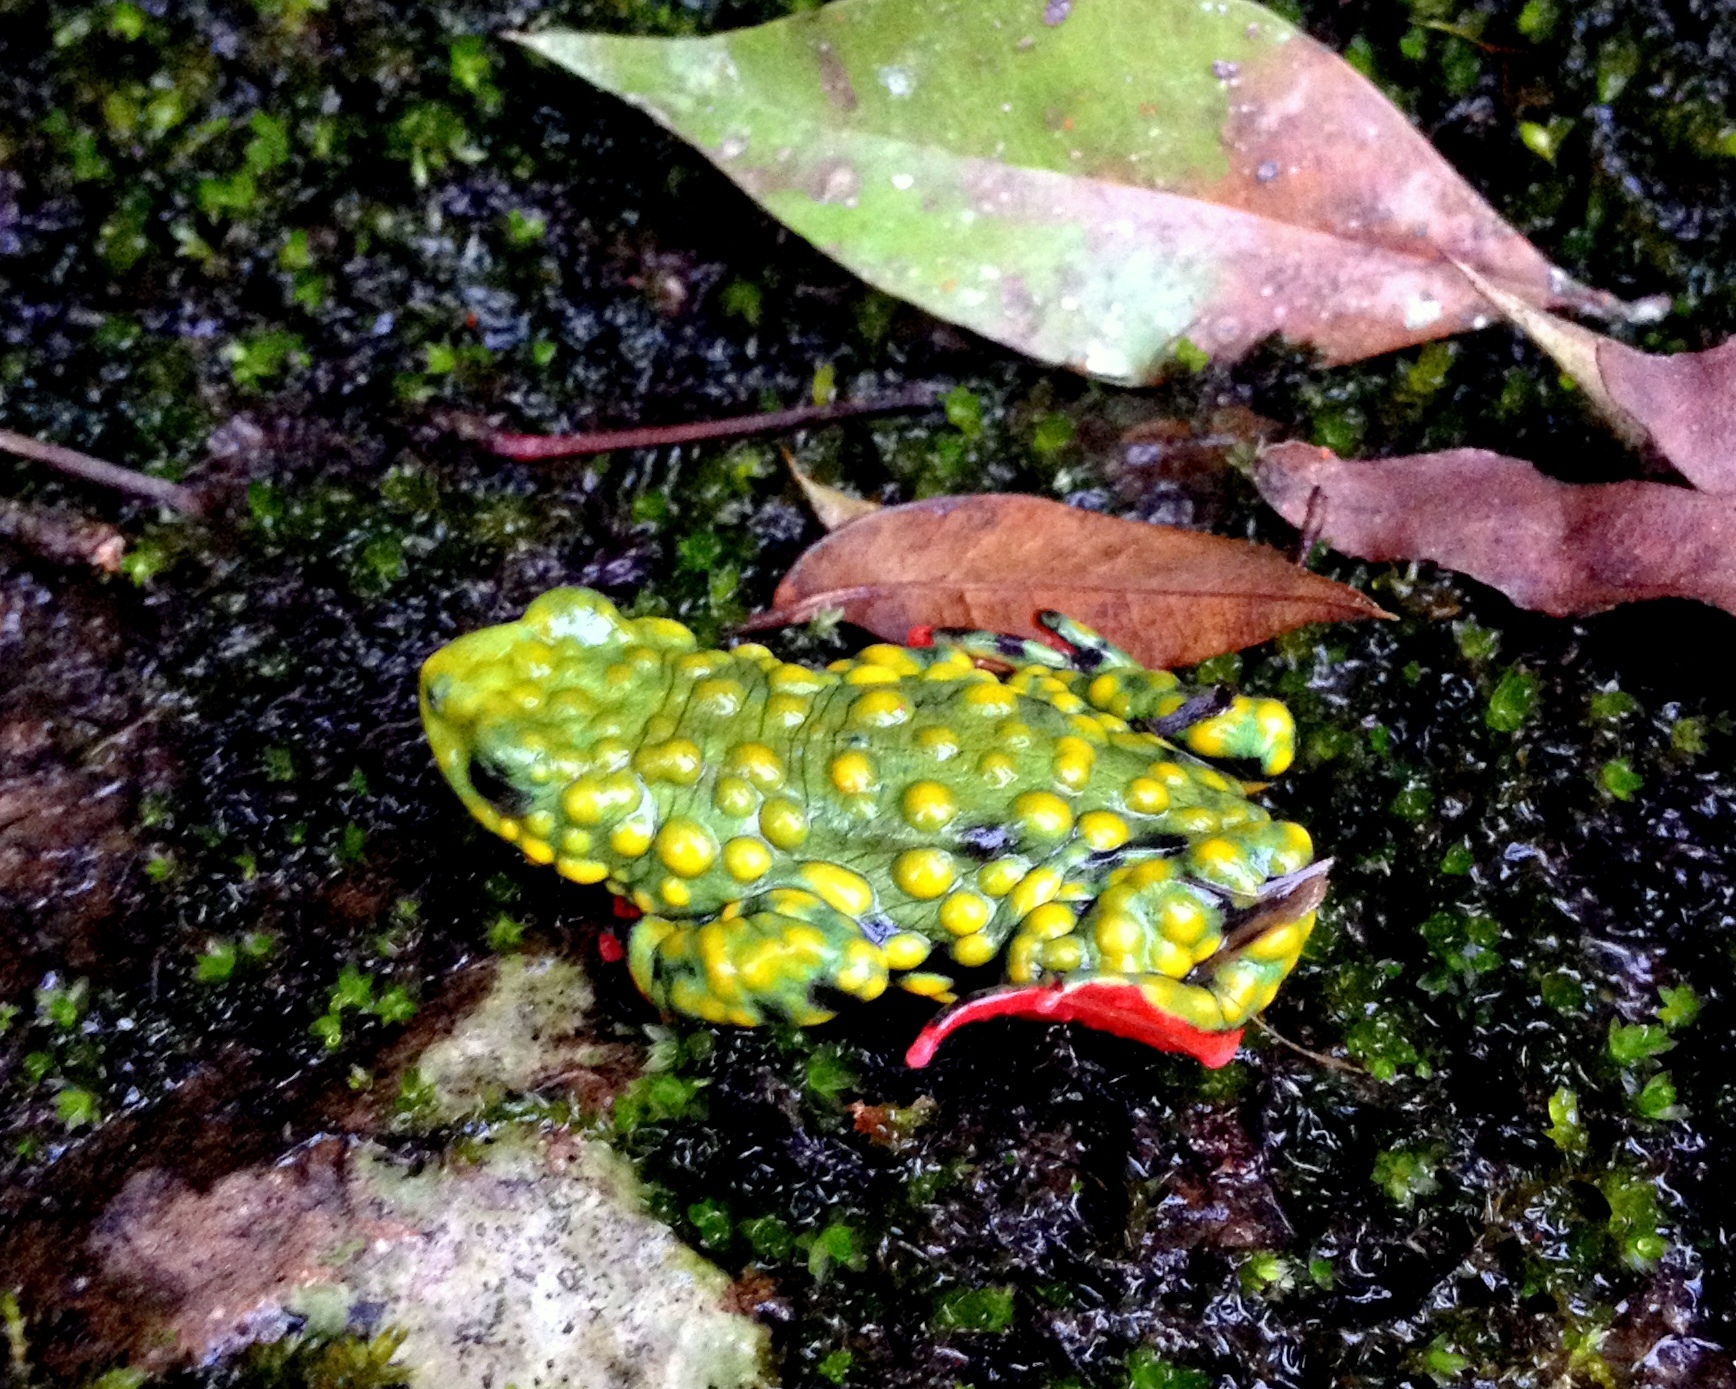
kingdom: Animalia
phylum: Chordata
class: Amphibia
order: Anura
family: Bufonidae
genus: Melanophryniscus
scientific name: Melanophryniscus admirabilis
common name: Admirable-redbelly-toad
